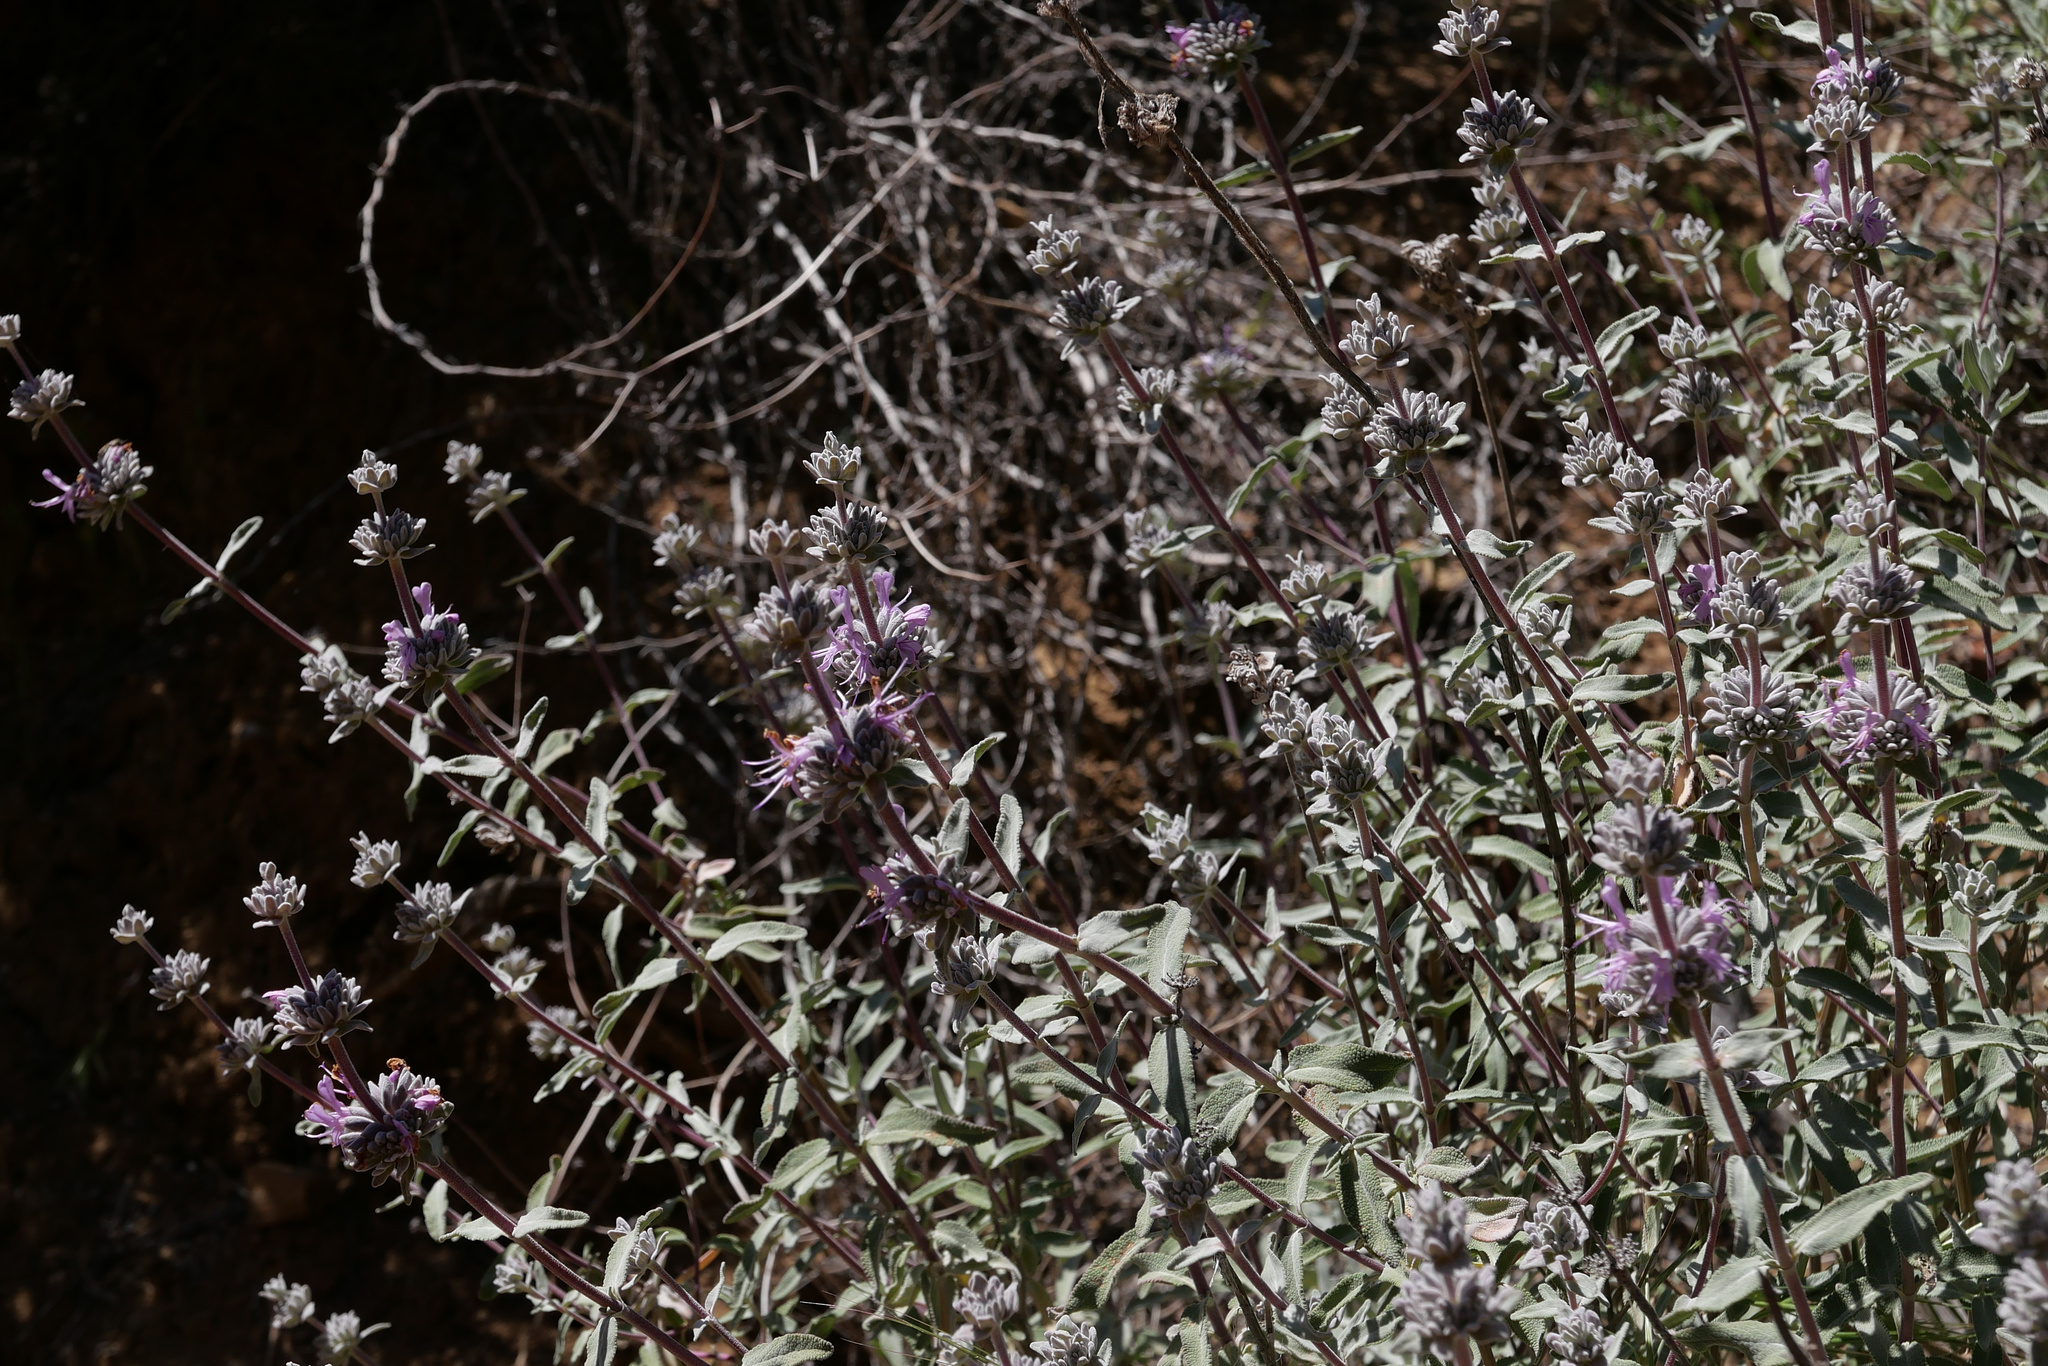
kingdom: Plantae
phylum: Tracheophyta
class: Magnoliopsida
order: Lamiales
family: Lamiaceae
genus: Salvia
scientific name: Salvia leucophylla
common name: Purple sage
